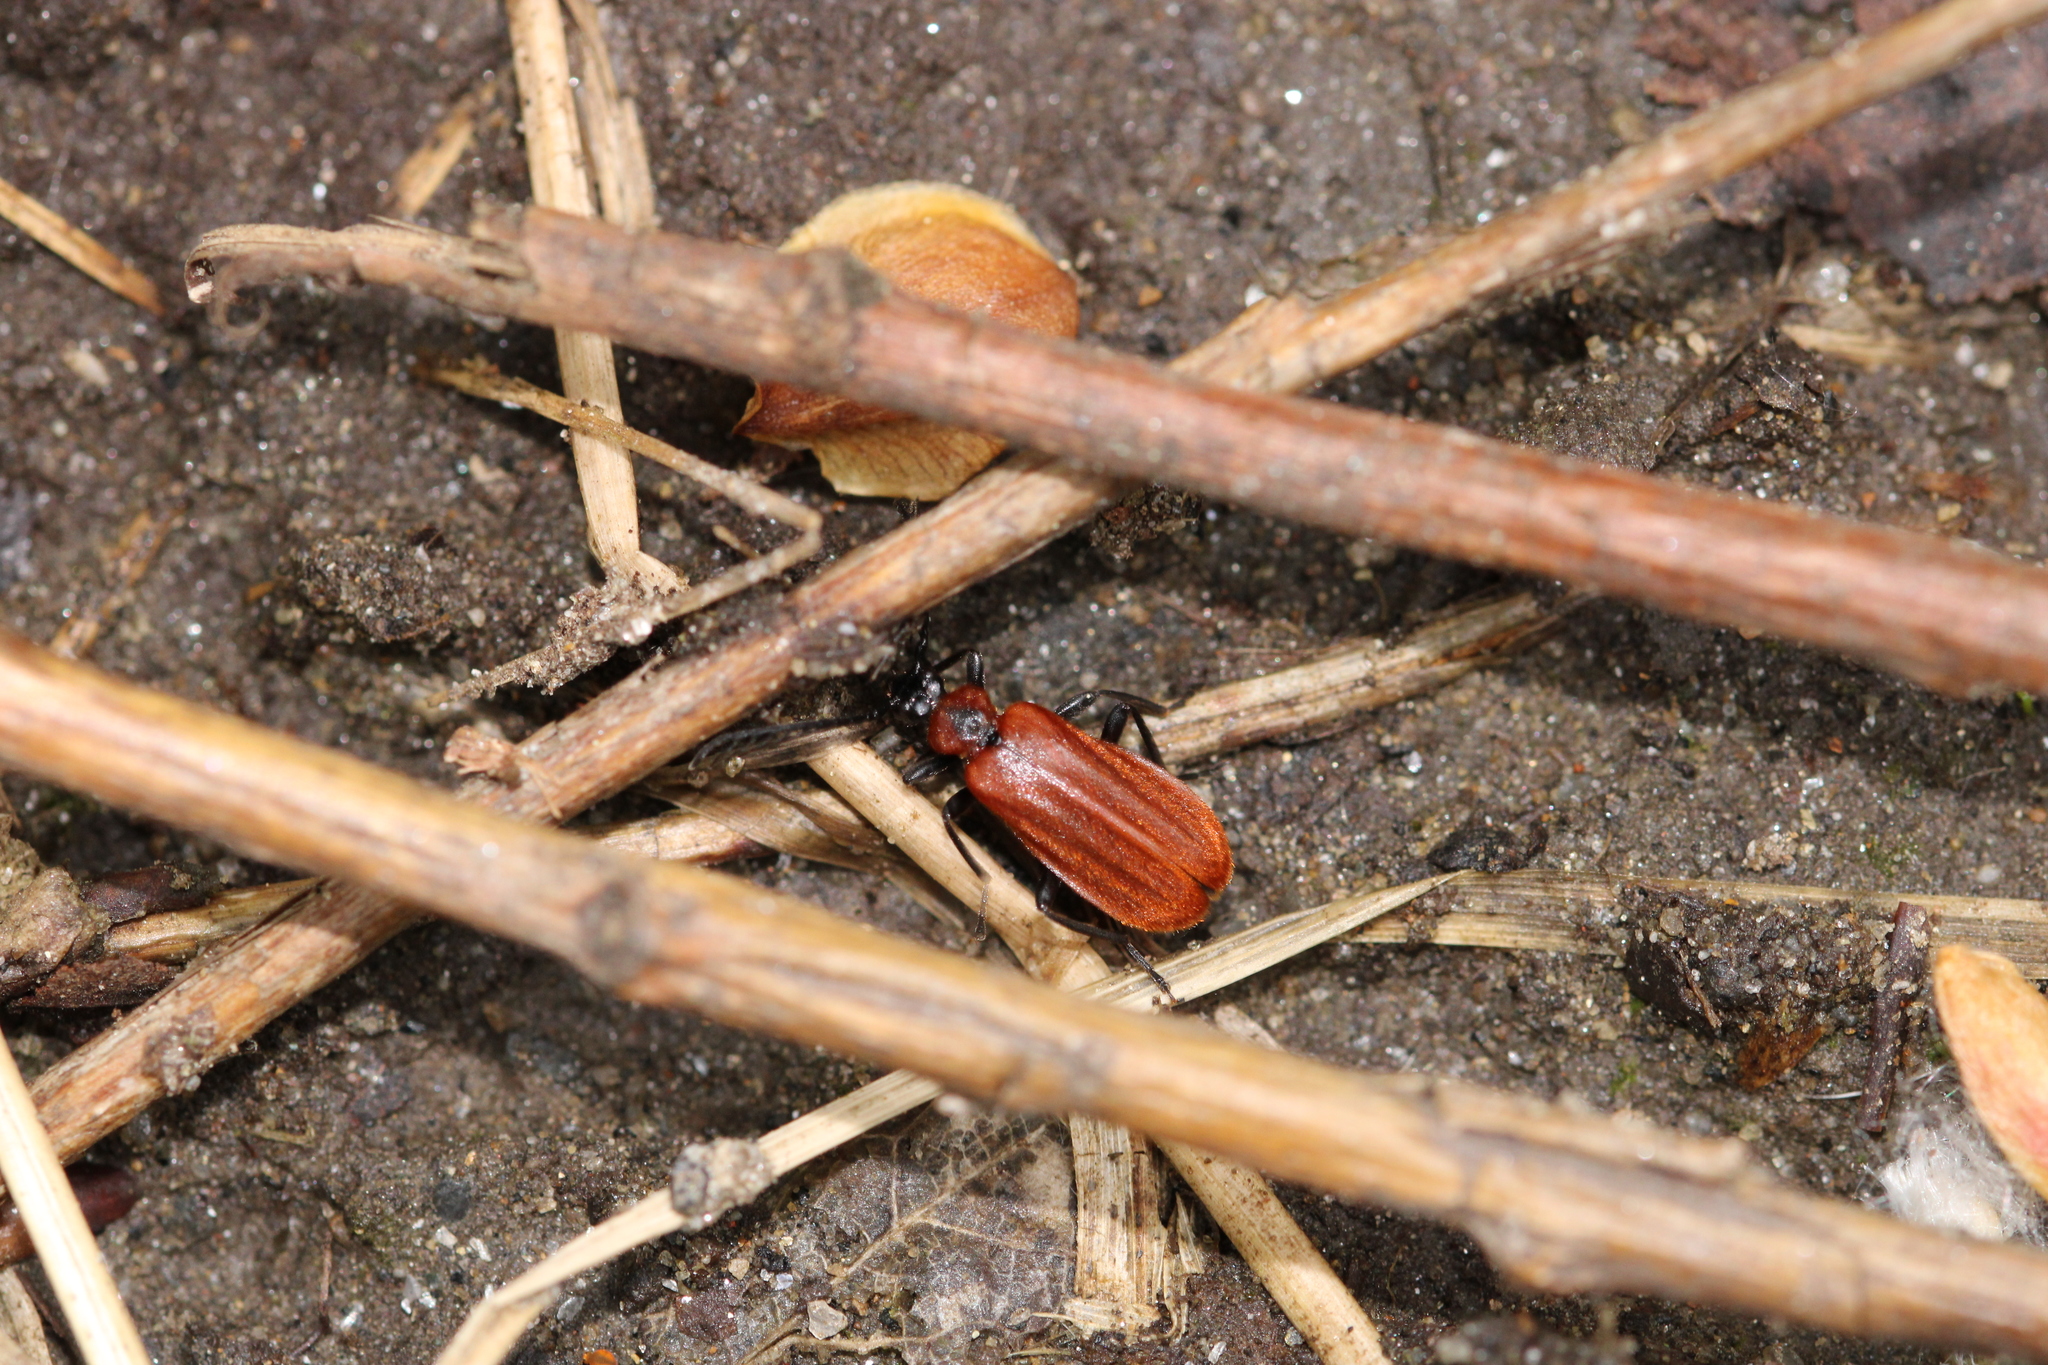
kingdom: Animalia
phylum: Arthropoda
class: Insecta
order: Coleoptera
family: Pyrochroidae
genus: Schizotus
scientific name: Schizotus pectinicornis
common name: Scarce cardinal beetle
